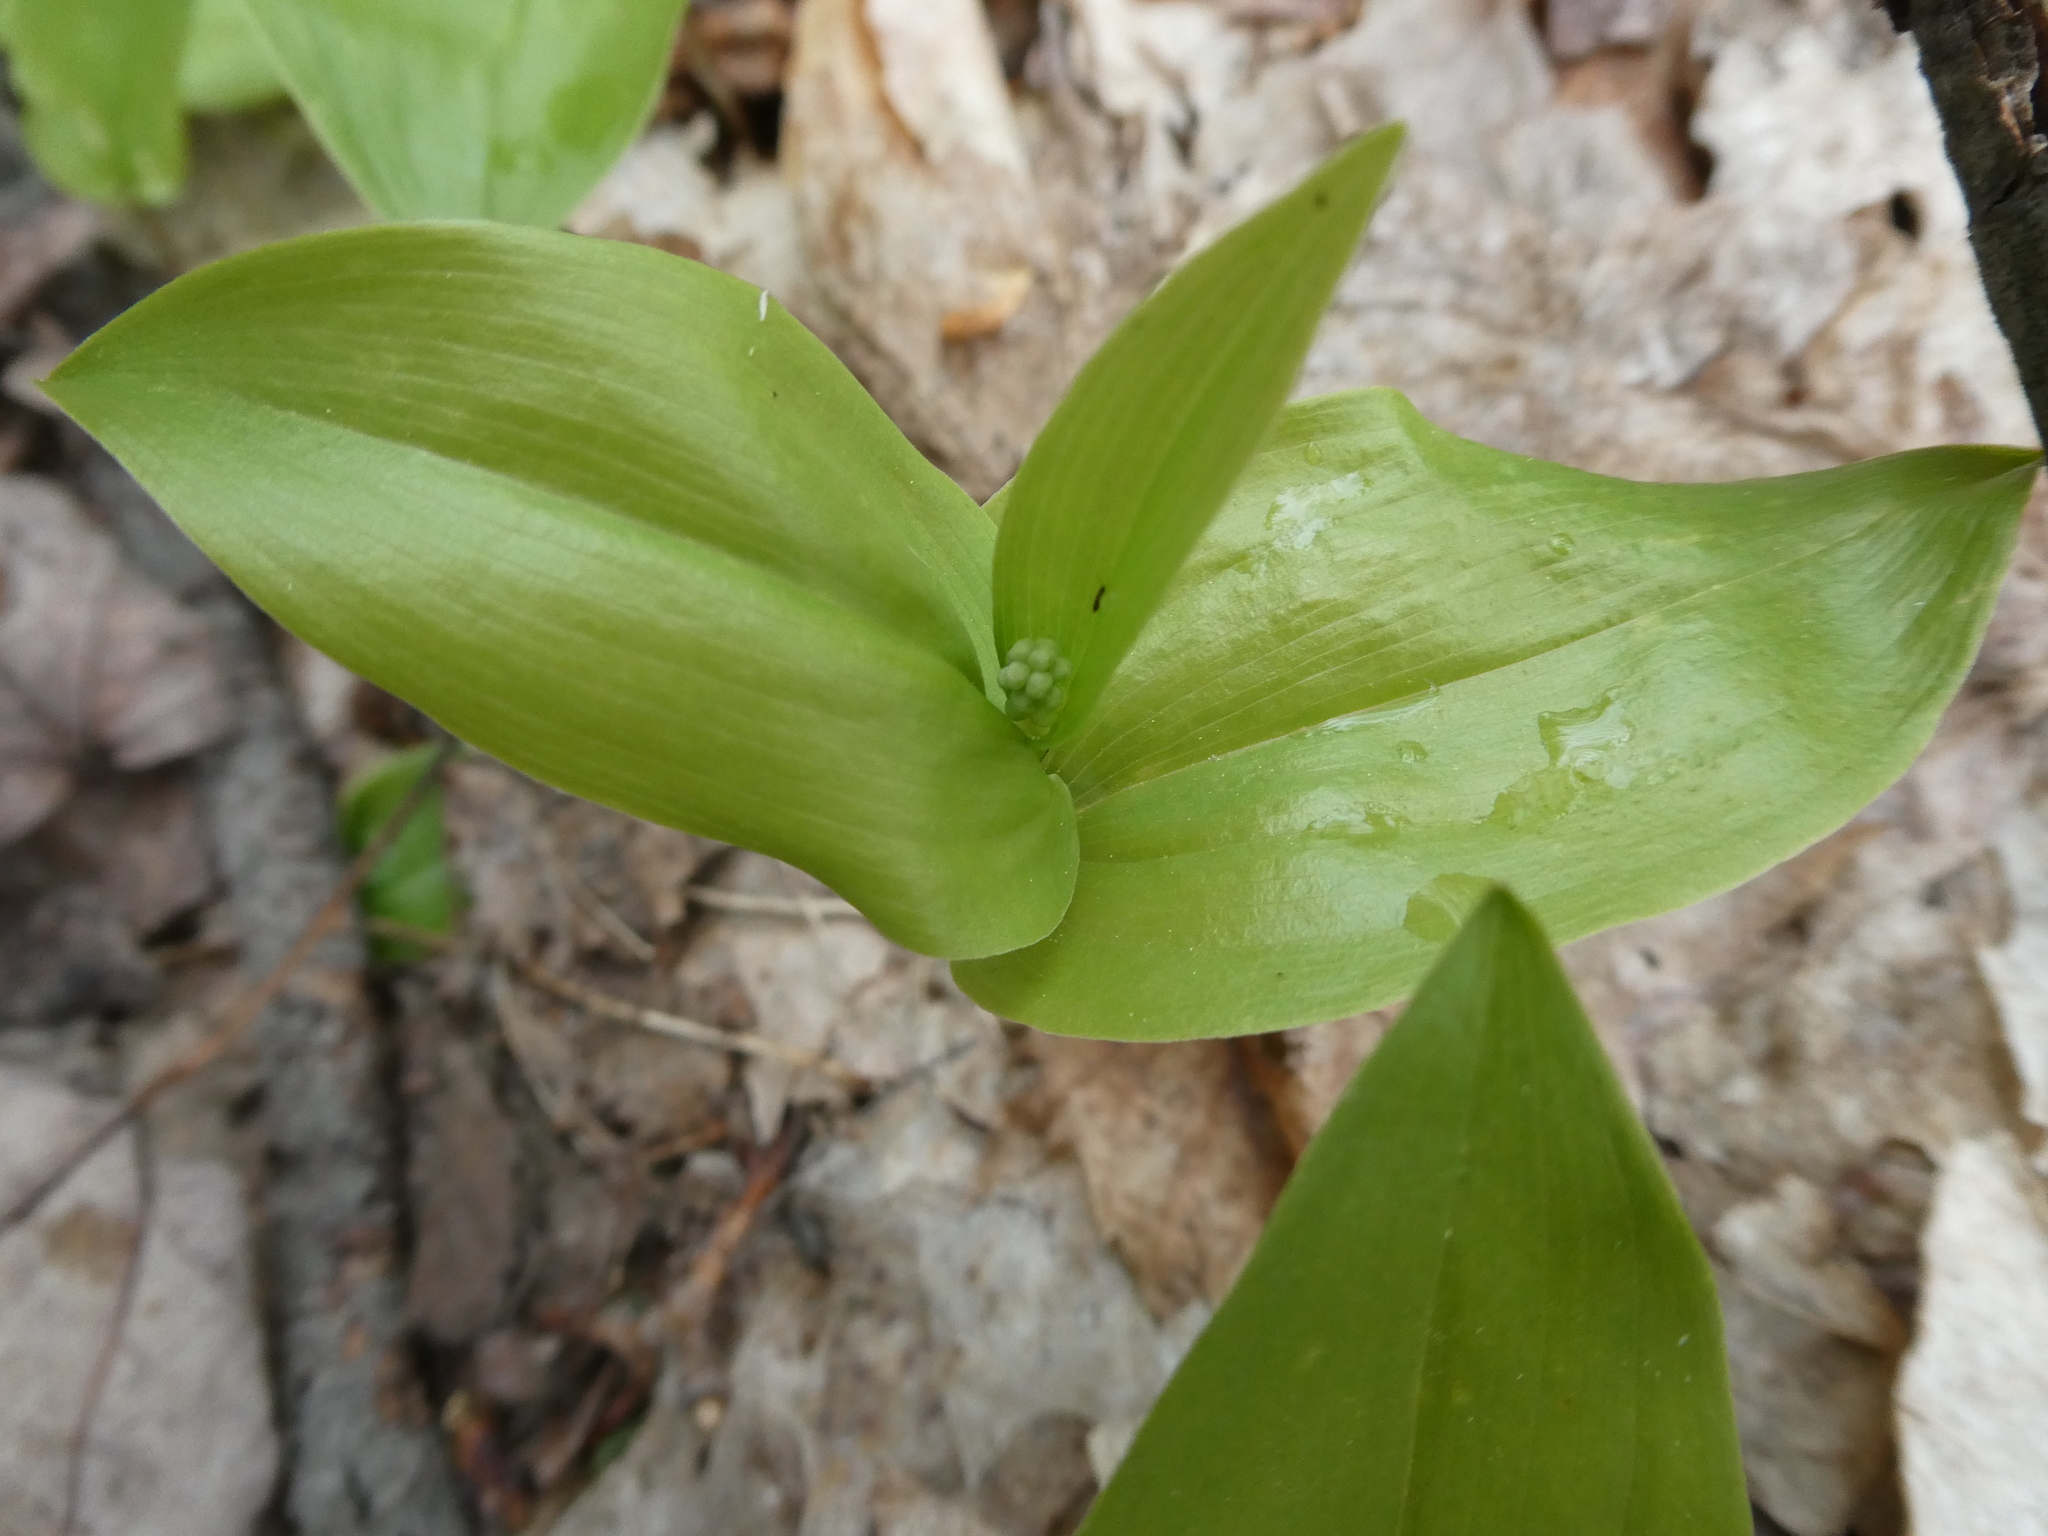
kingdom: Plantae
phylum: Tracheophyta
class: Liliopsida
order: Asparagales
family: Asparagaceae
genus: Maianthemum
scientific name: Maianthemum canadense
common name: False lily-of-the-valley
